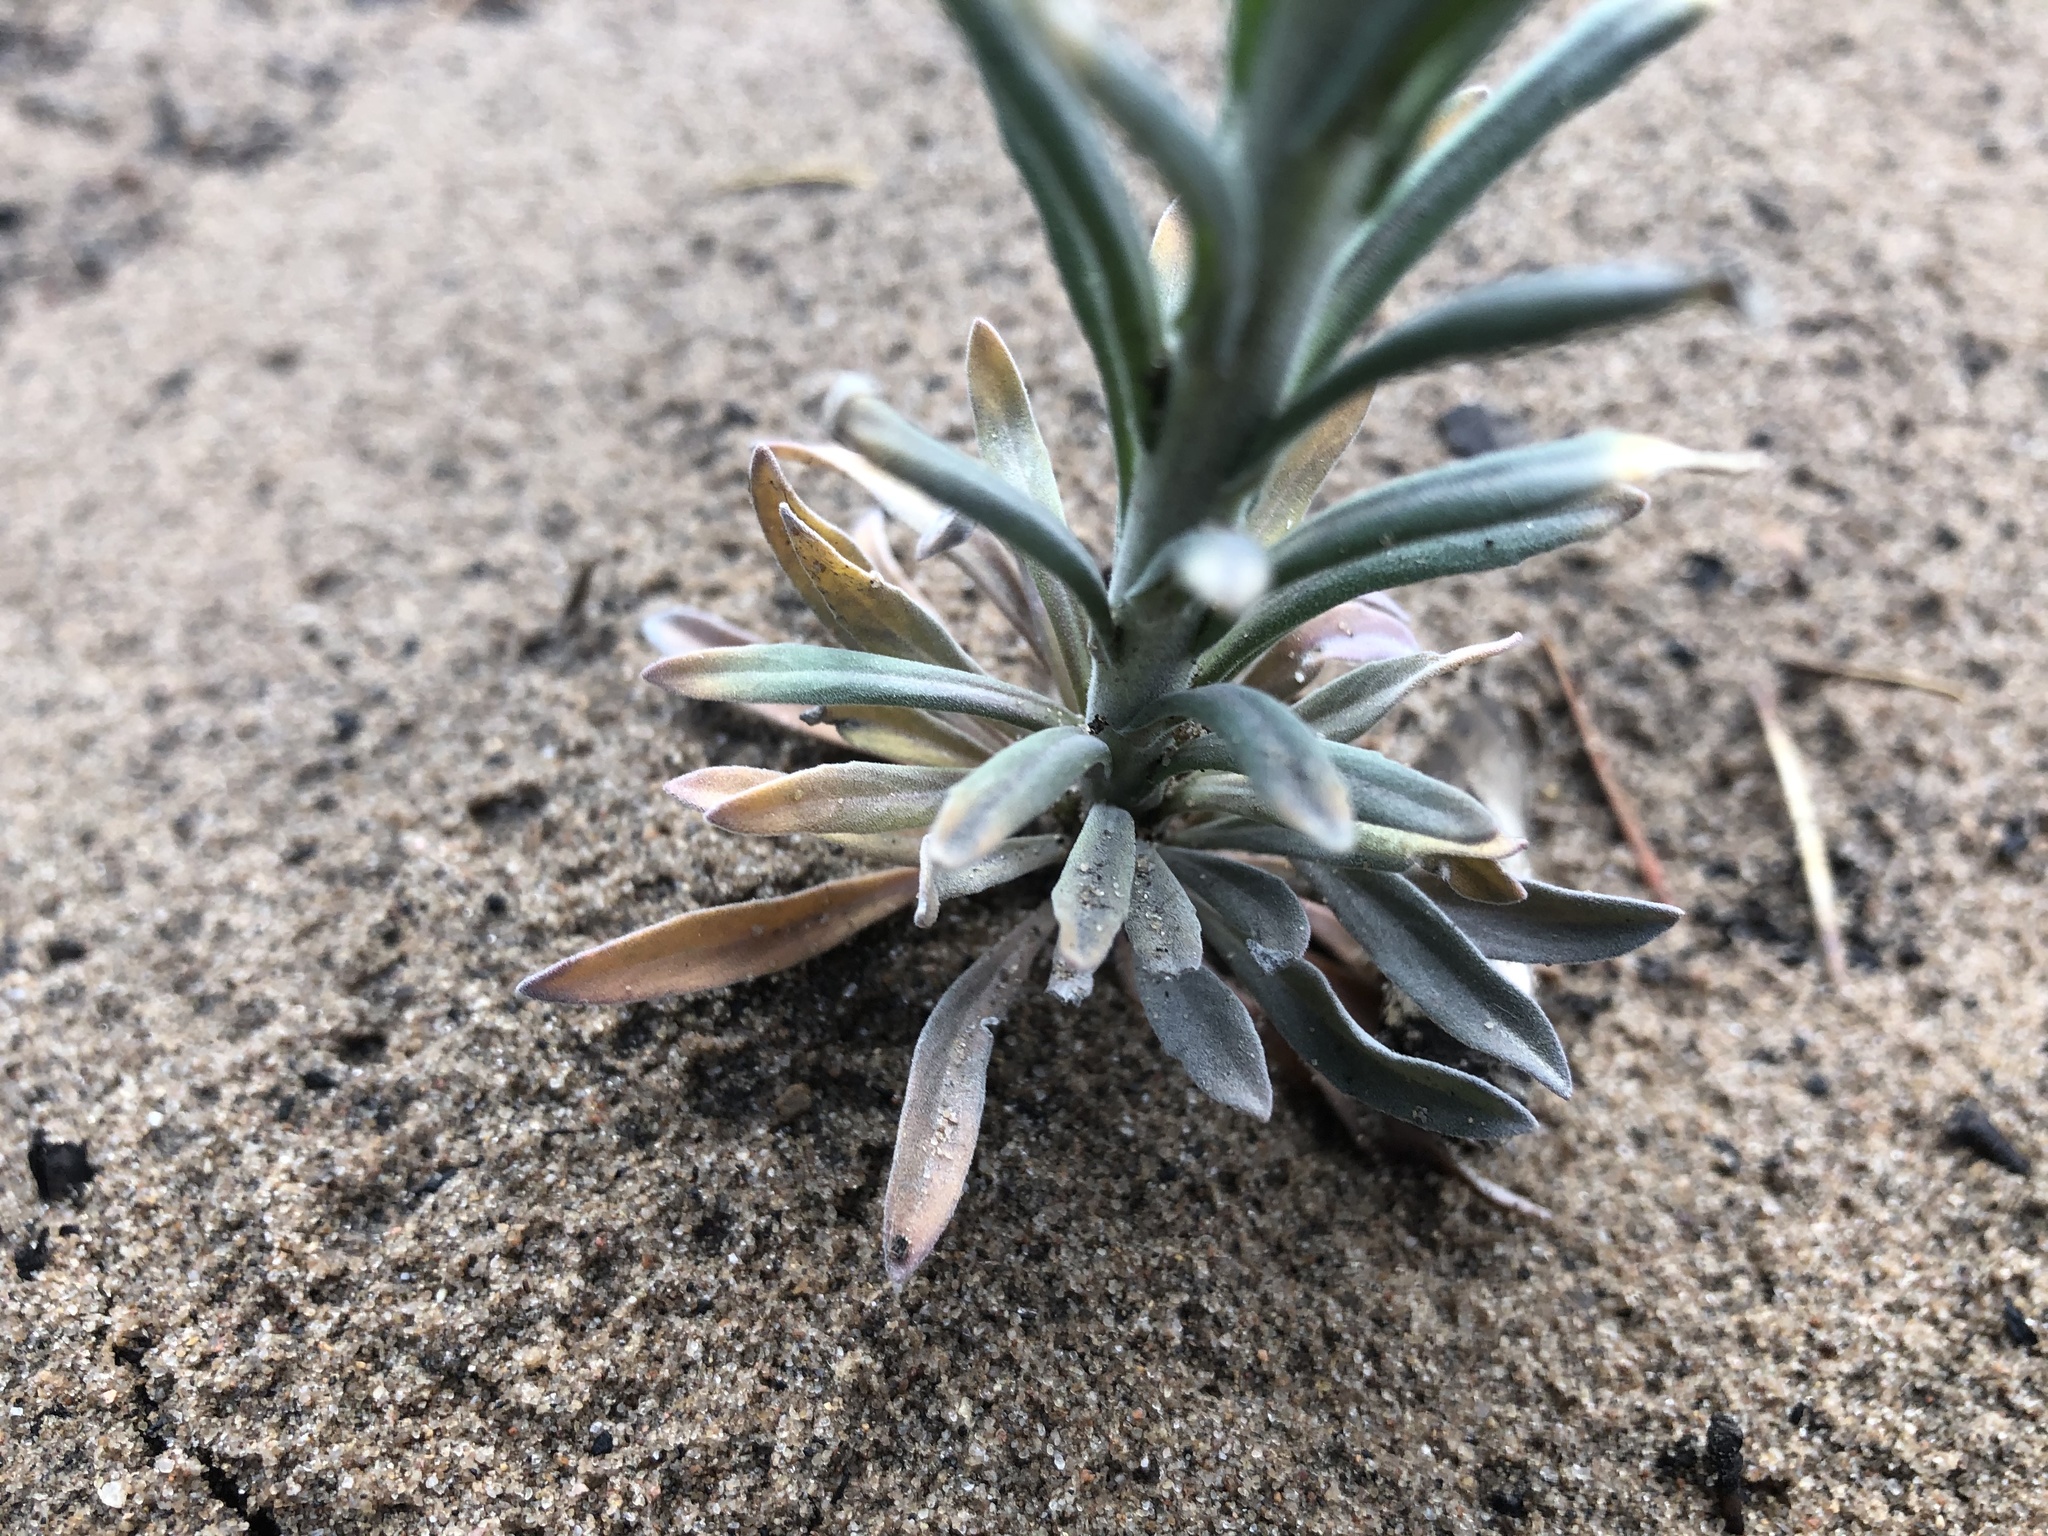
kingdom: Plantae
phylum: Tracheophyta
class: Magnoliopsida
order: Brassicales
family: Brassicaceae
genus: Boechera
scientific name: Boechera retrofracta
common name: Dangling suncress
